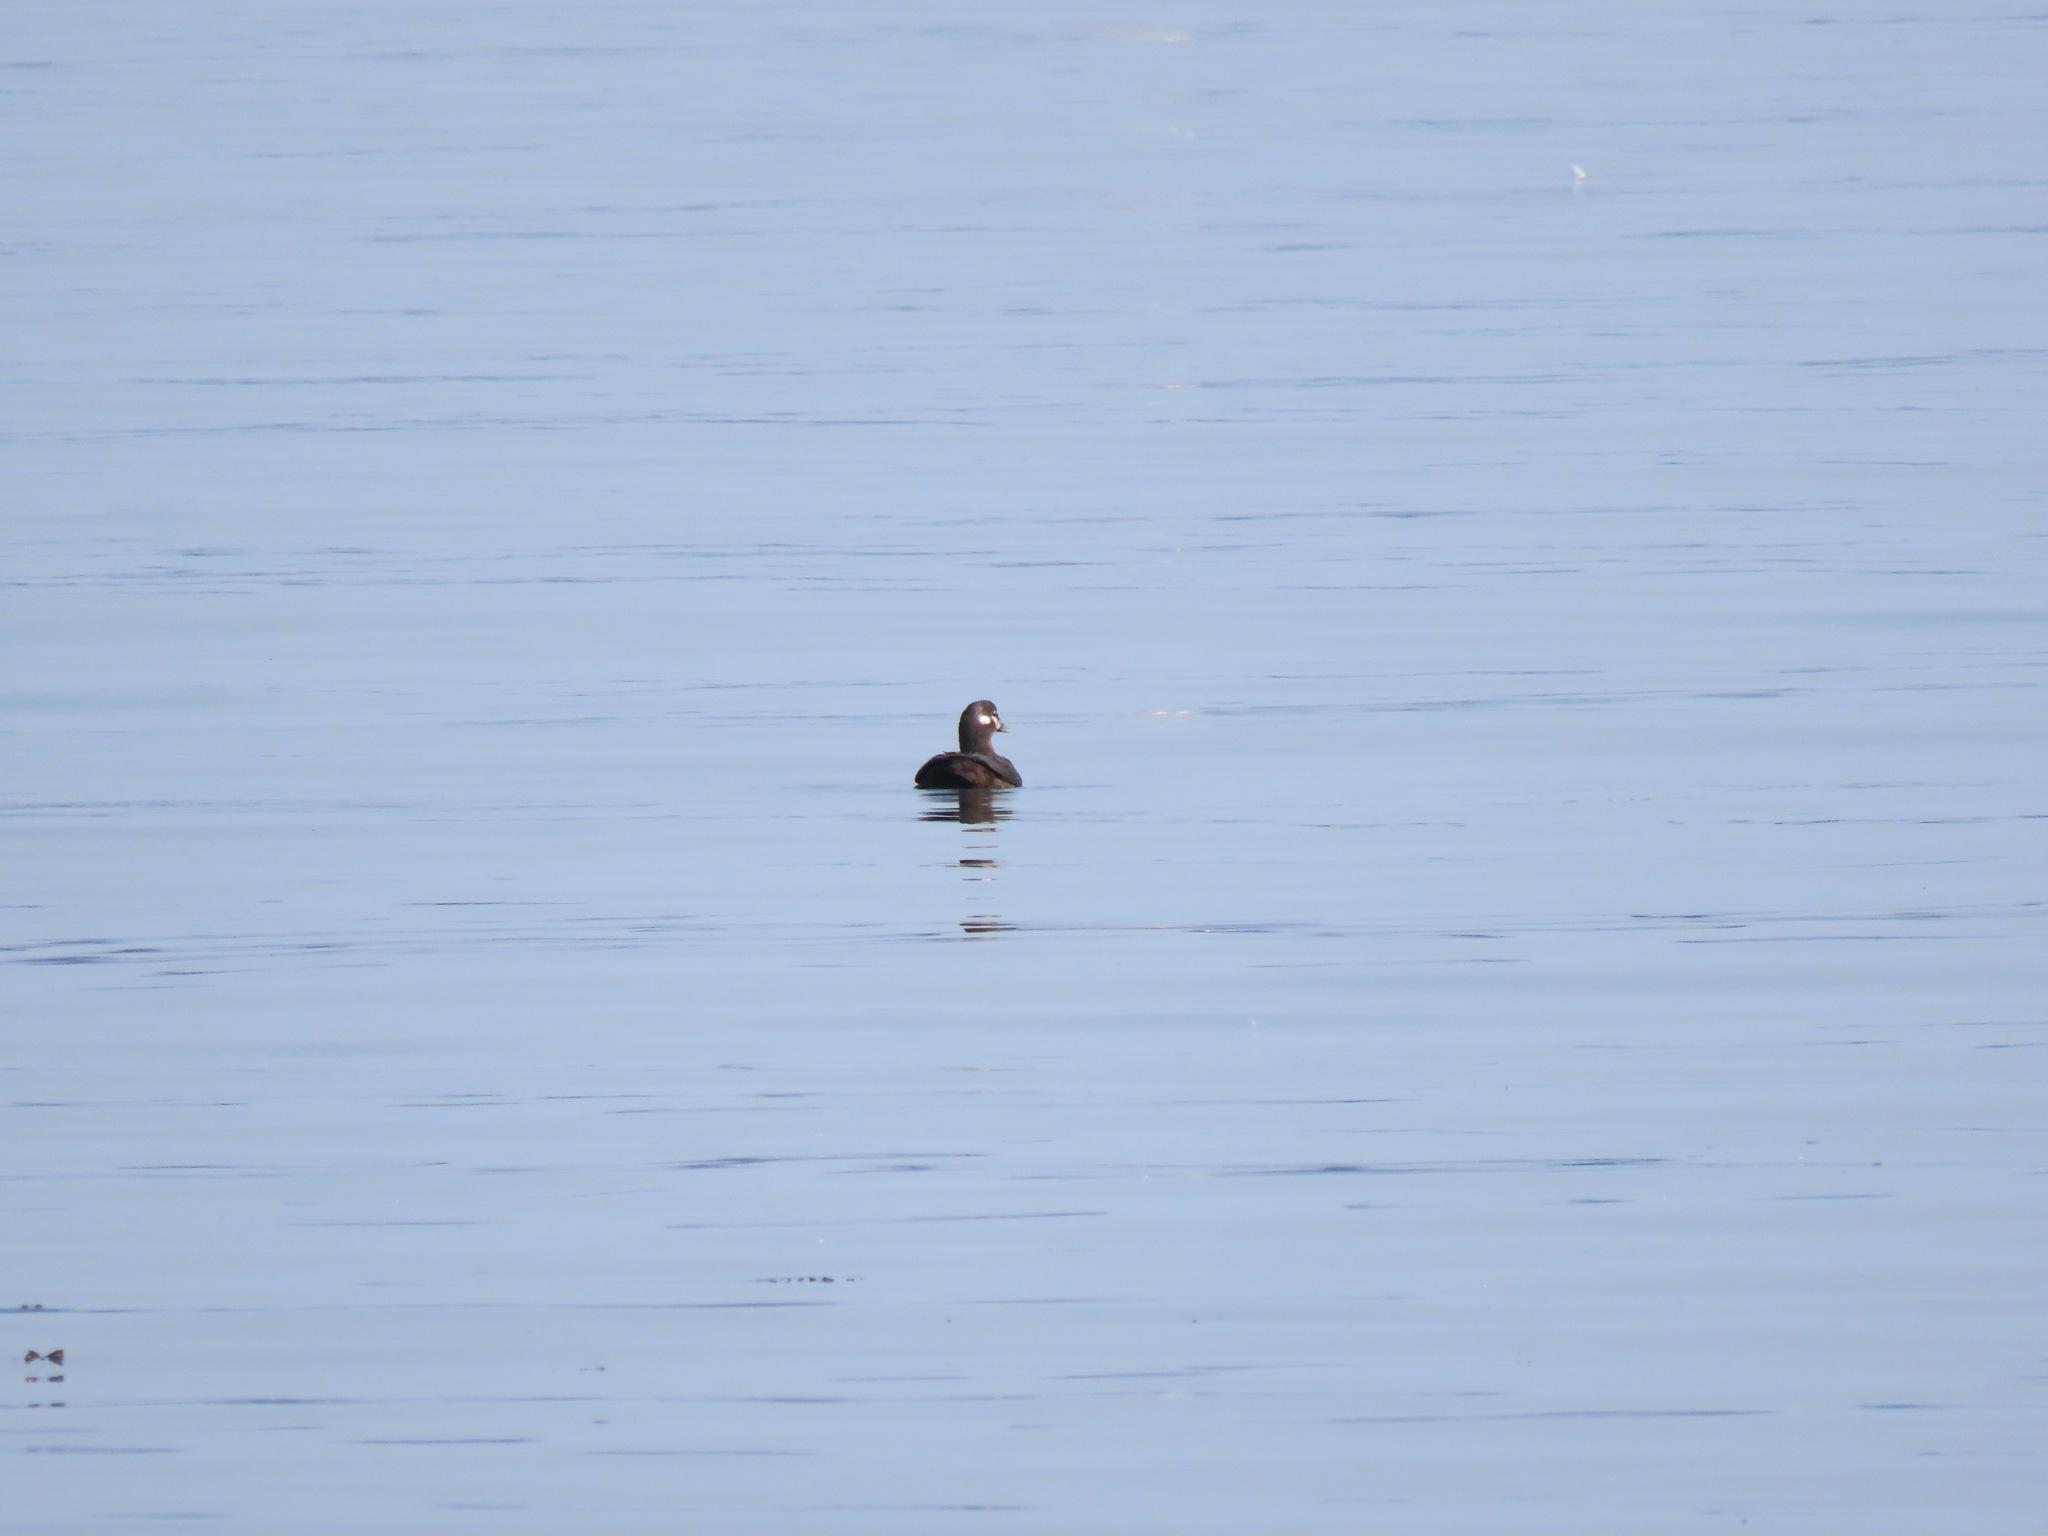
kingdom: Animalia
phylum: Chordata
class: Aves
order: Anseriformes
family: Anatidae
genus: Histrionicus
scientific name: Histrionicus histrionicus
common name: Harlequin duck
